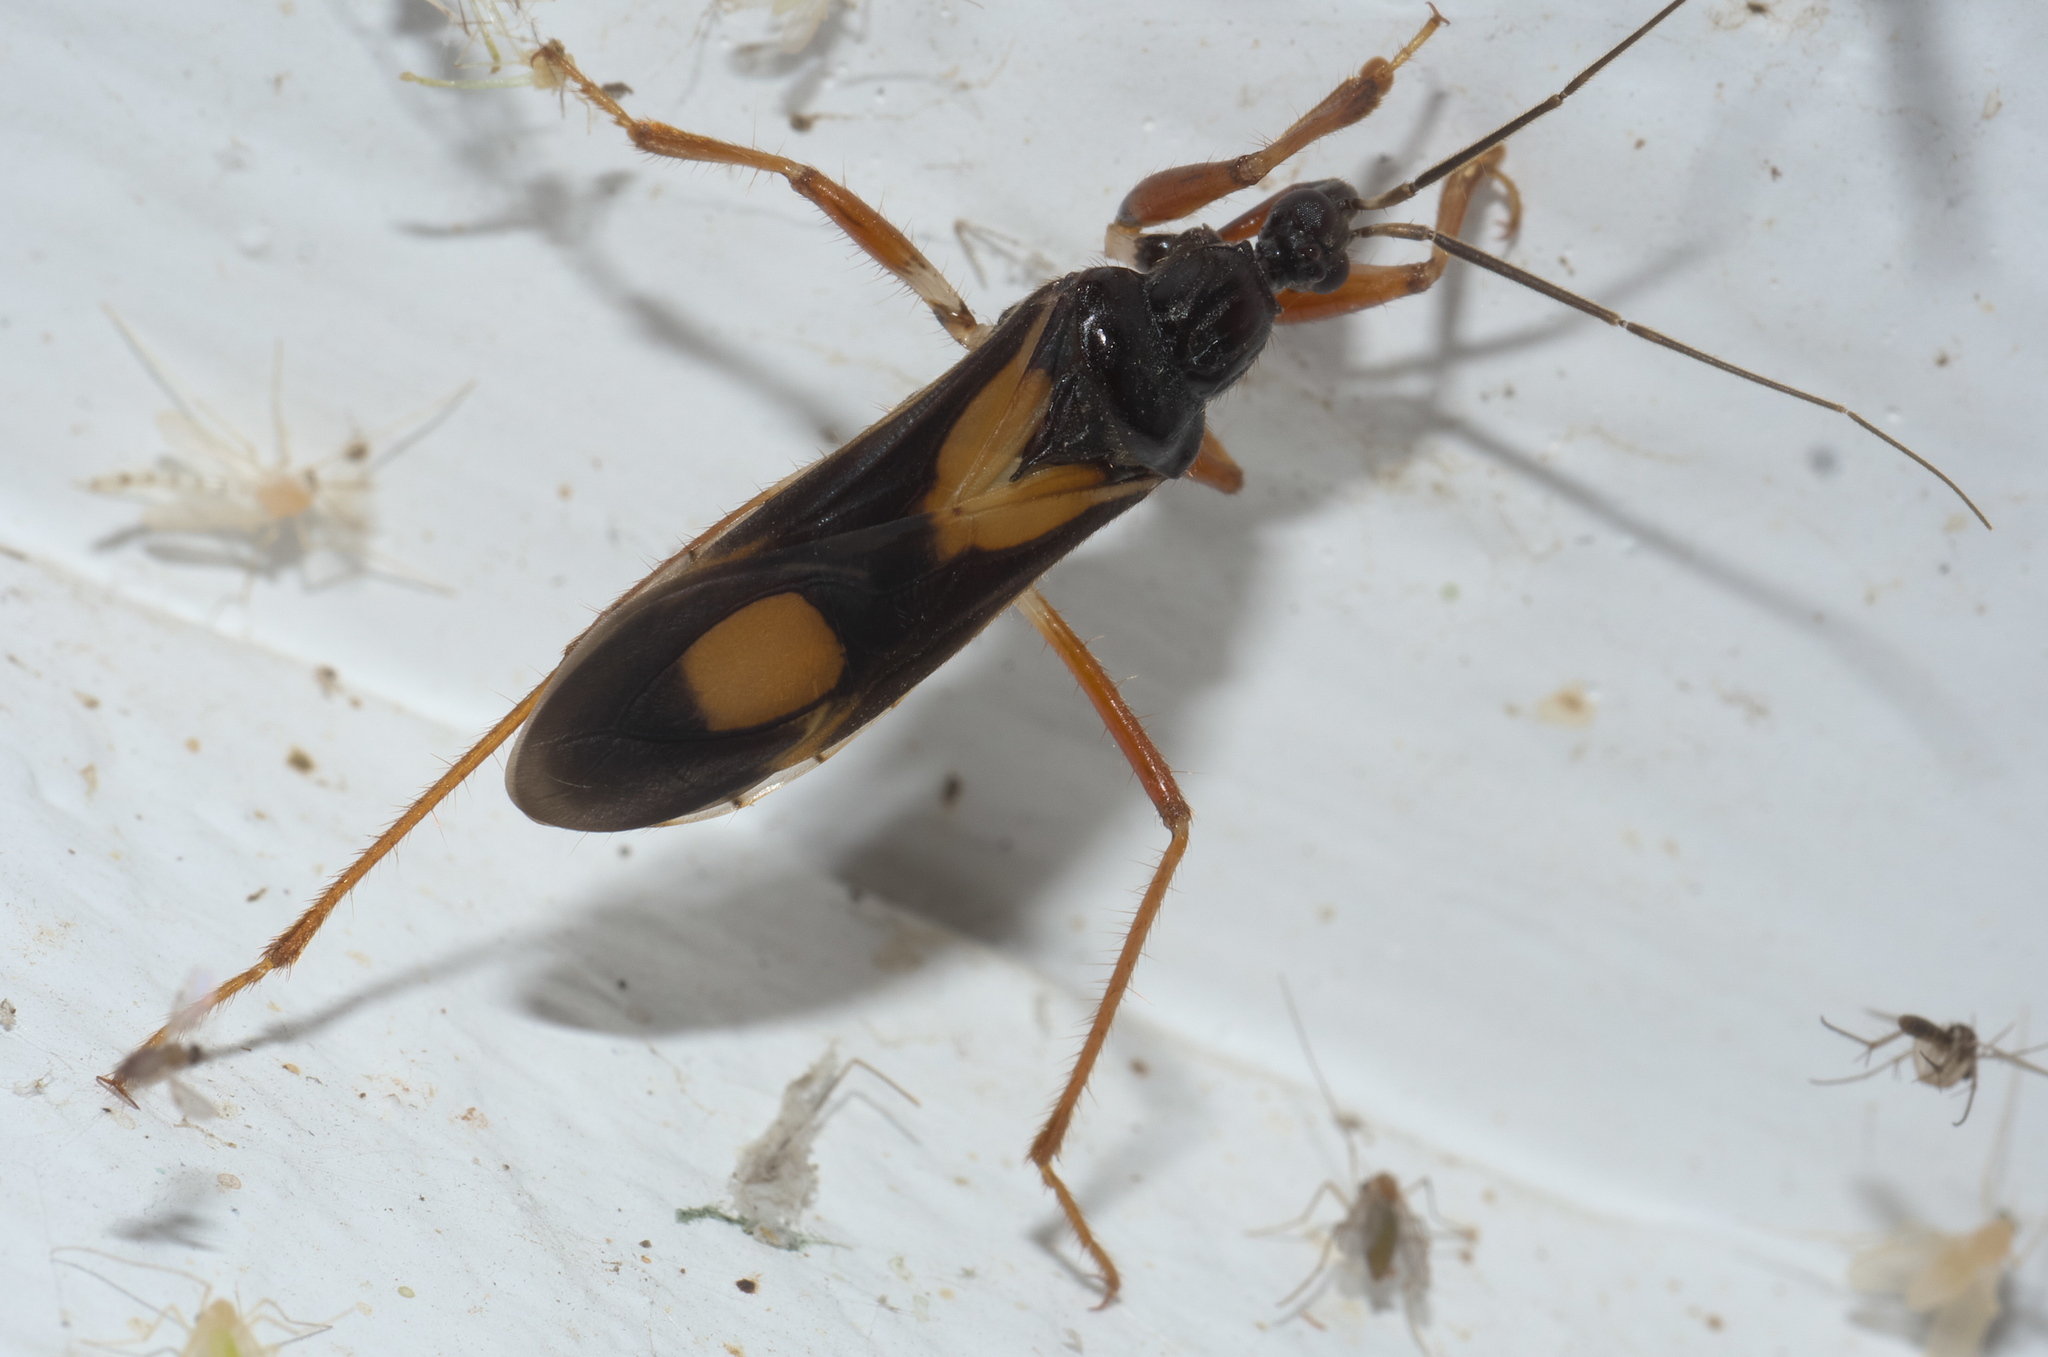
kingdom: Animalia
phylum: Arthropoda
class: Insecta
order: Hemiptera
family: Reduviidae
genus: Rasahus
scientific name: Rasahus hamatus
